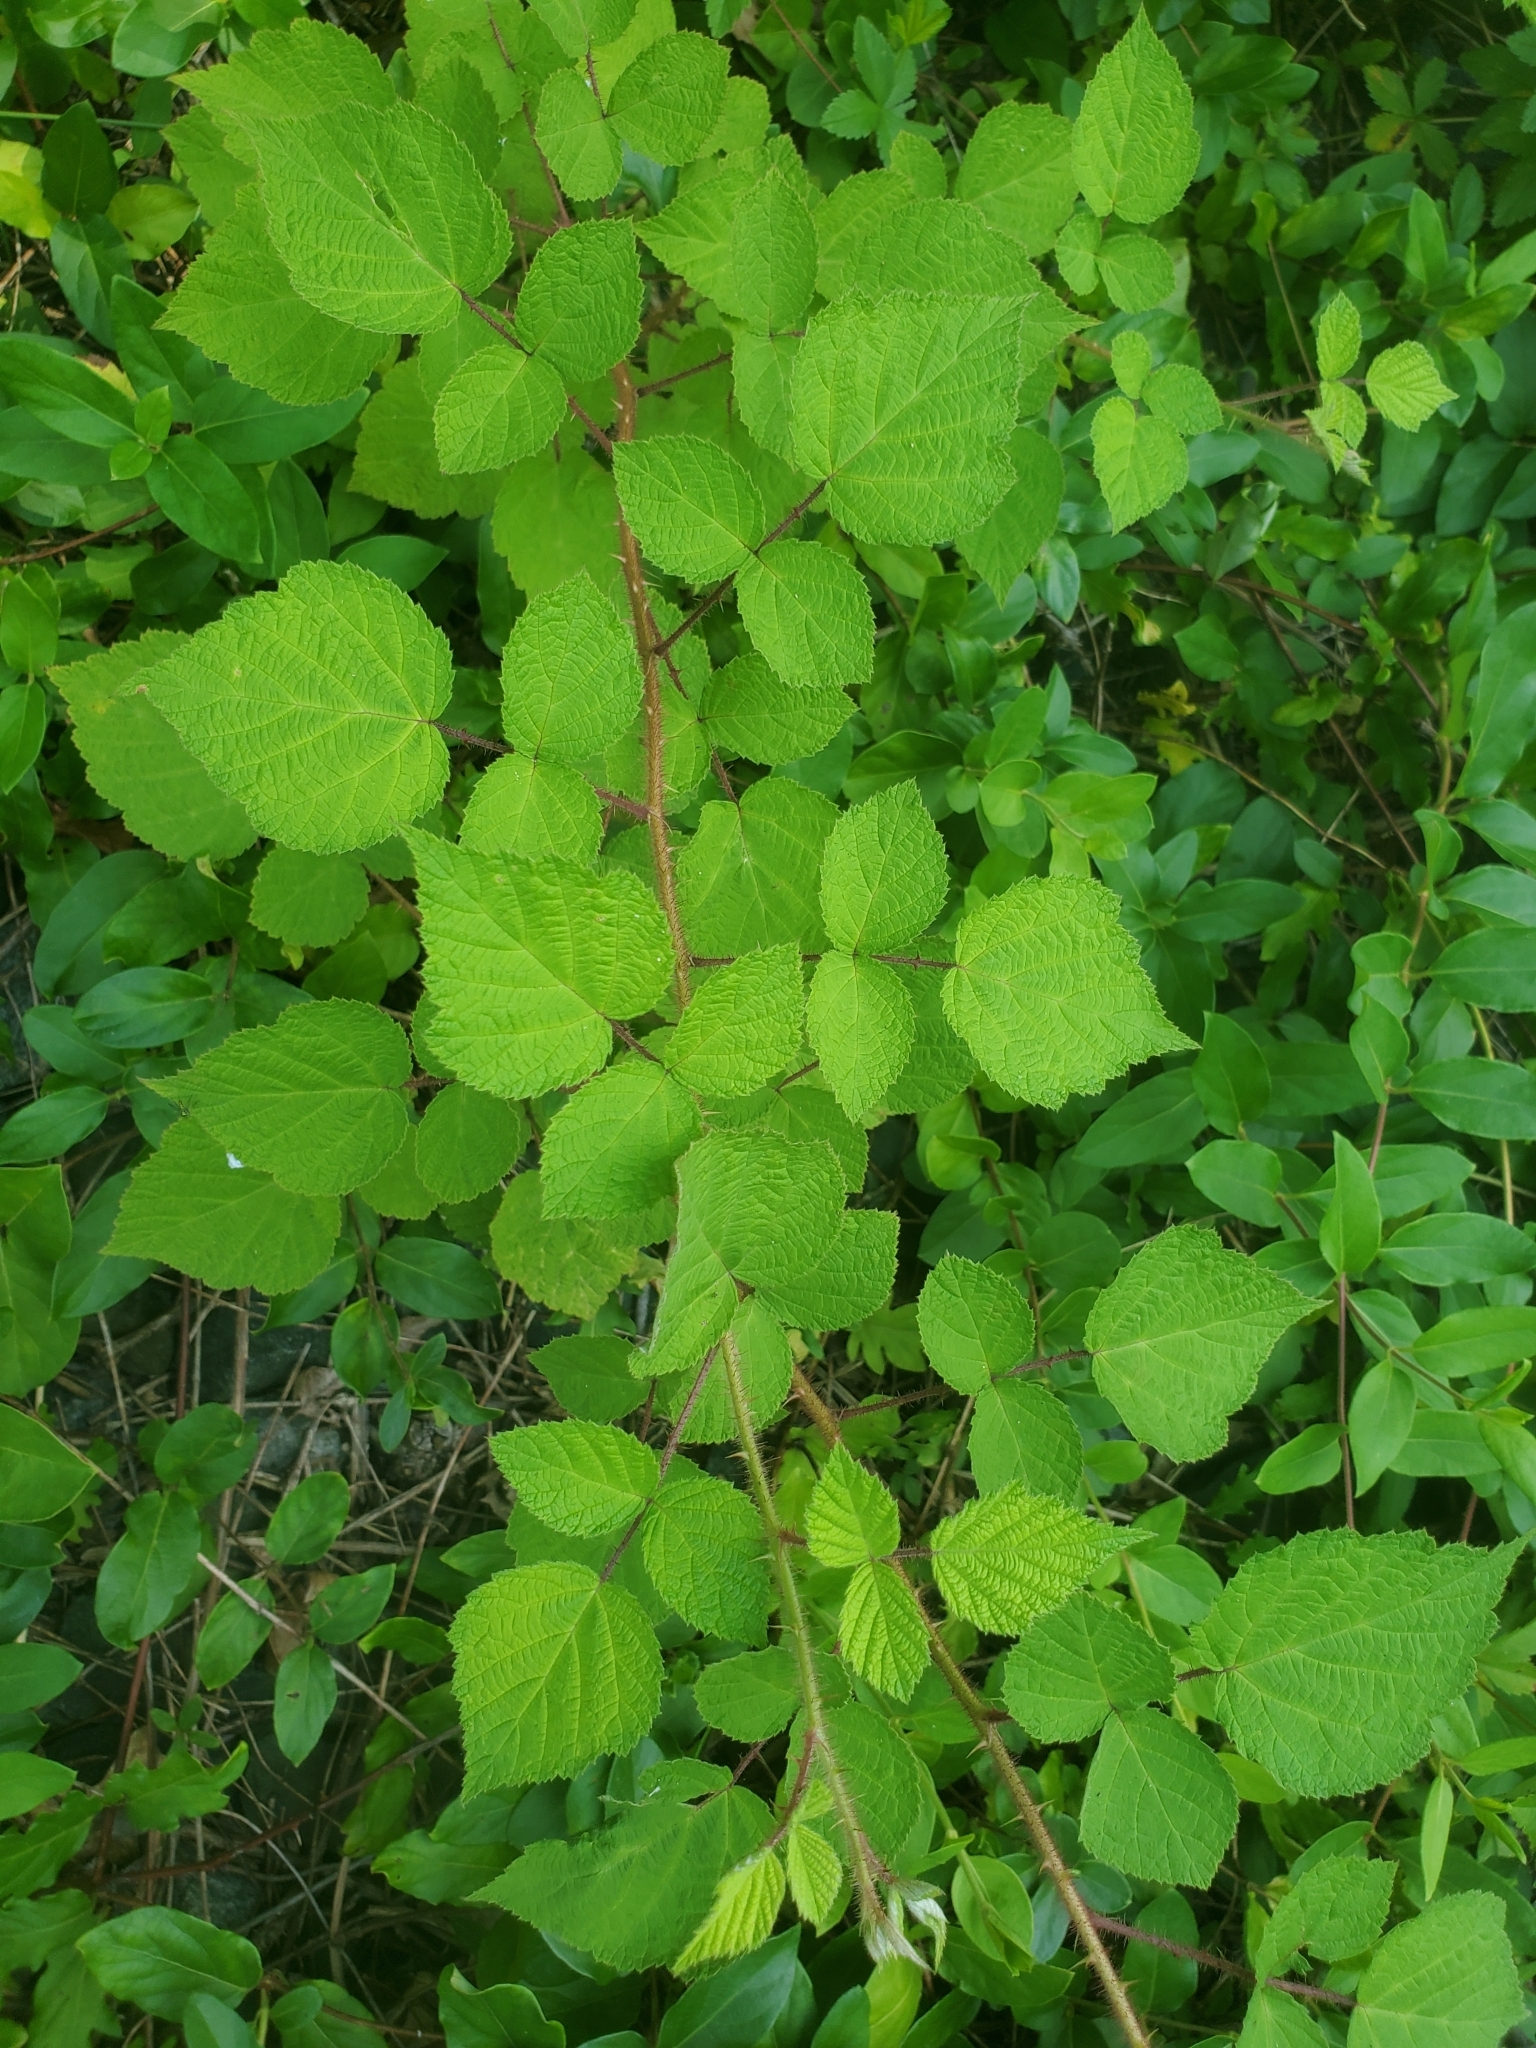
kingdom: Plantae
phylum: Tracheophyta
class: Magnoliopsida
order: Rosales
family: Rosaceae
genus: Rubus
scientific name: Rubus phoenicolasius
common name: Japanese wineberry
